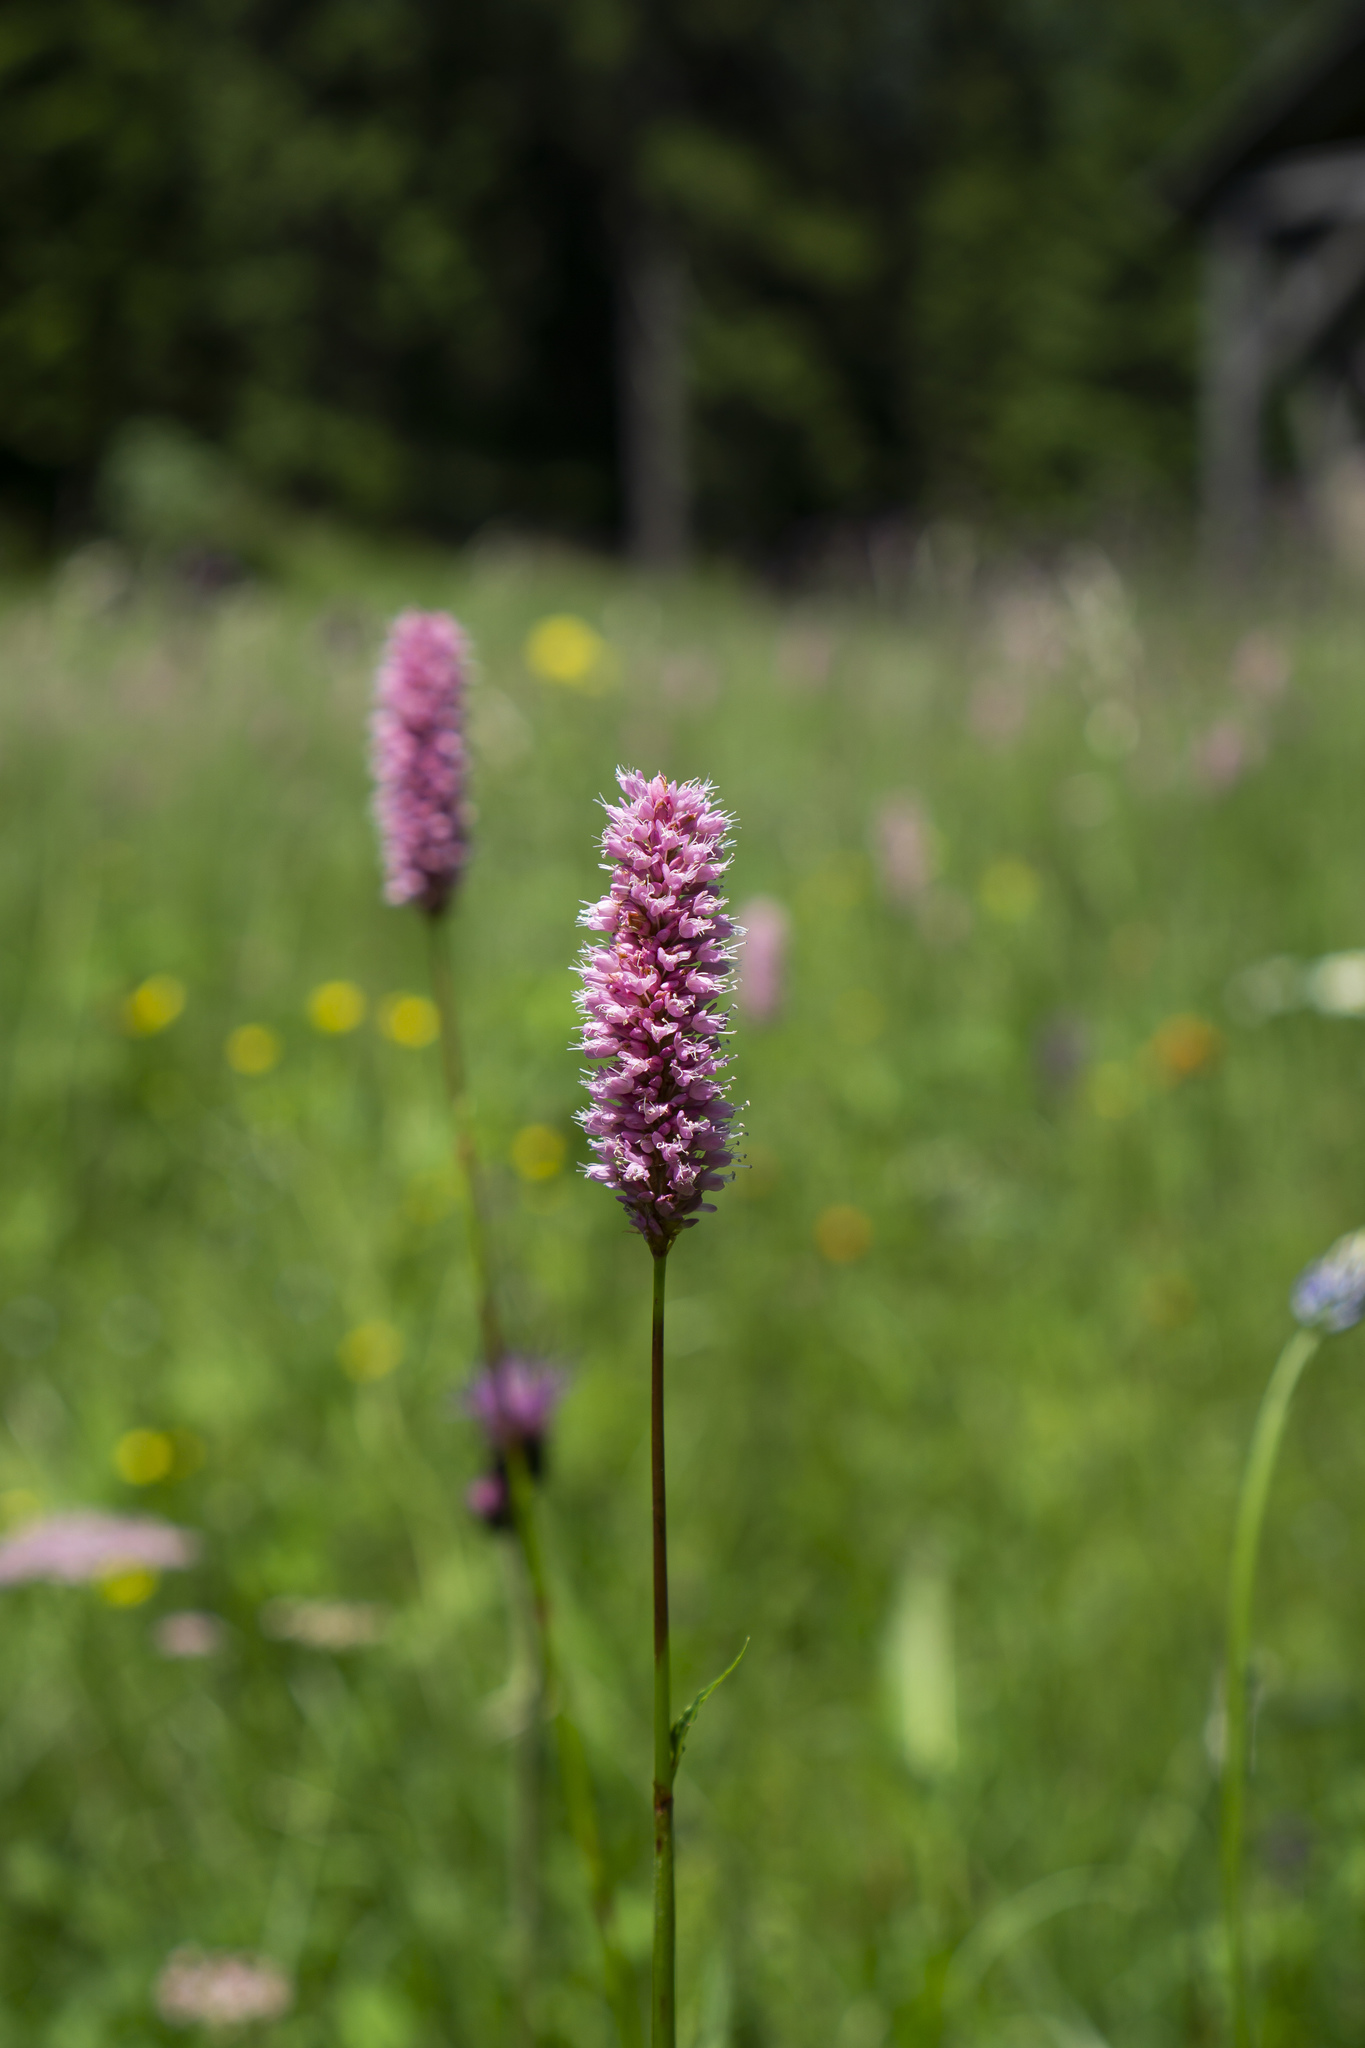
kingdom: Plantae
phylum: Tracheophyta
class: Magnoliopsida
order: Caryophyllales
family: Polygonaceae
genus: Bistorta
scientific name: Bistorta officinalis
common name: Common bistort
